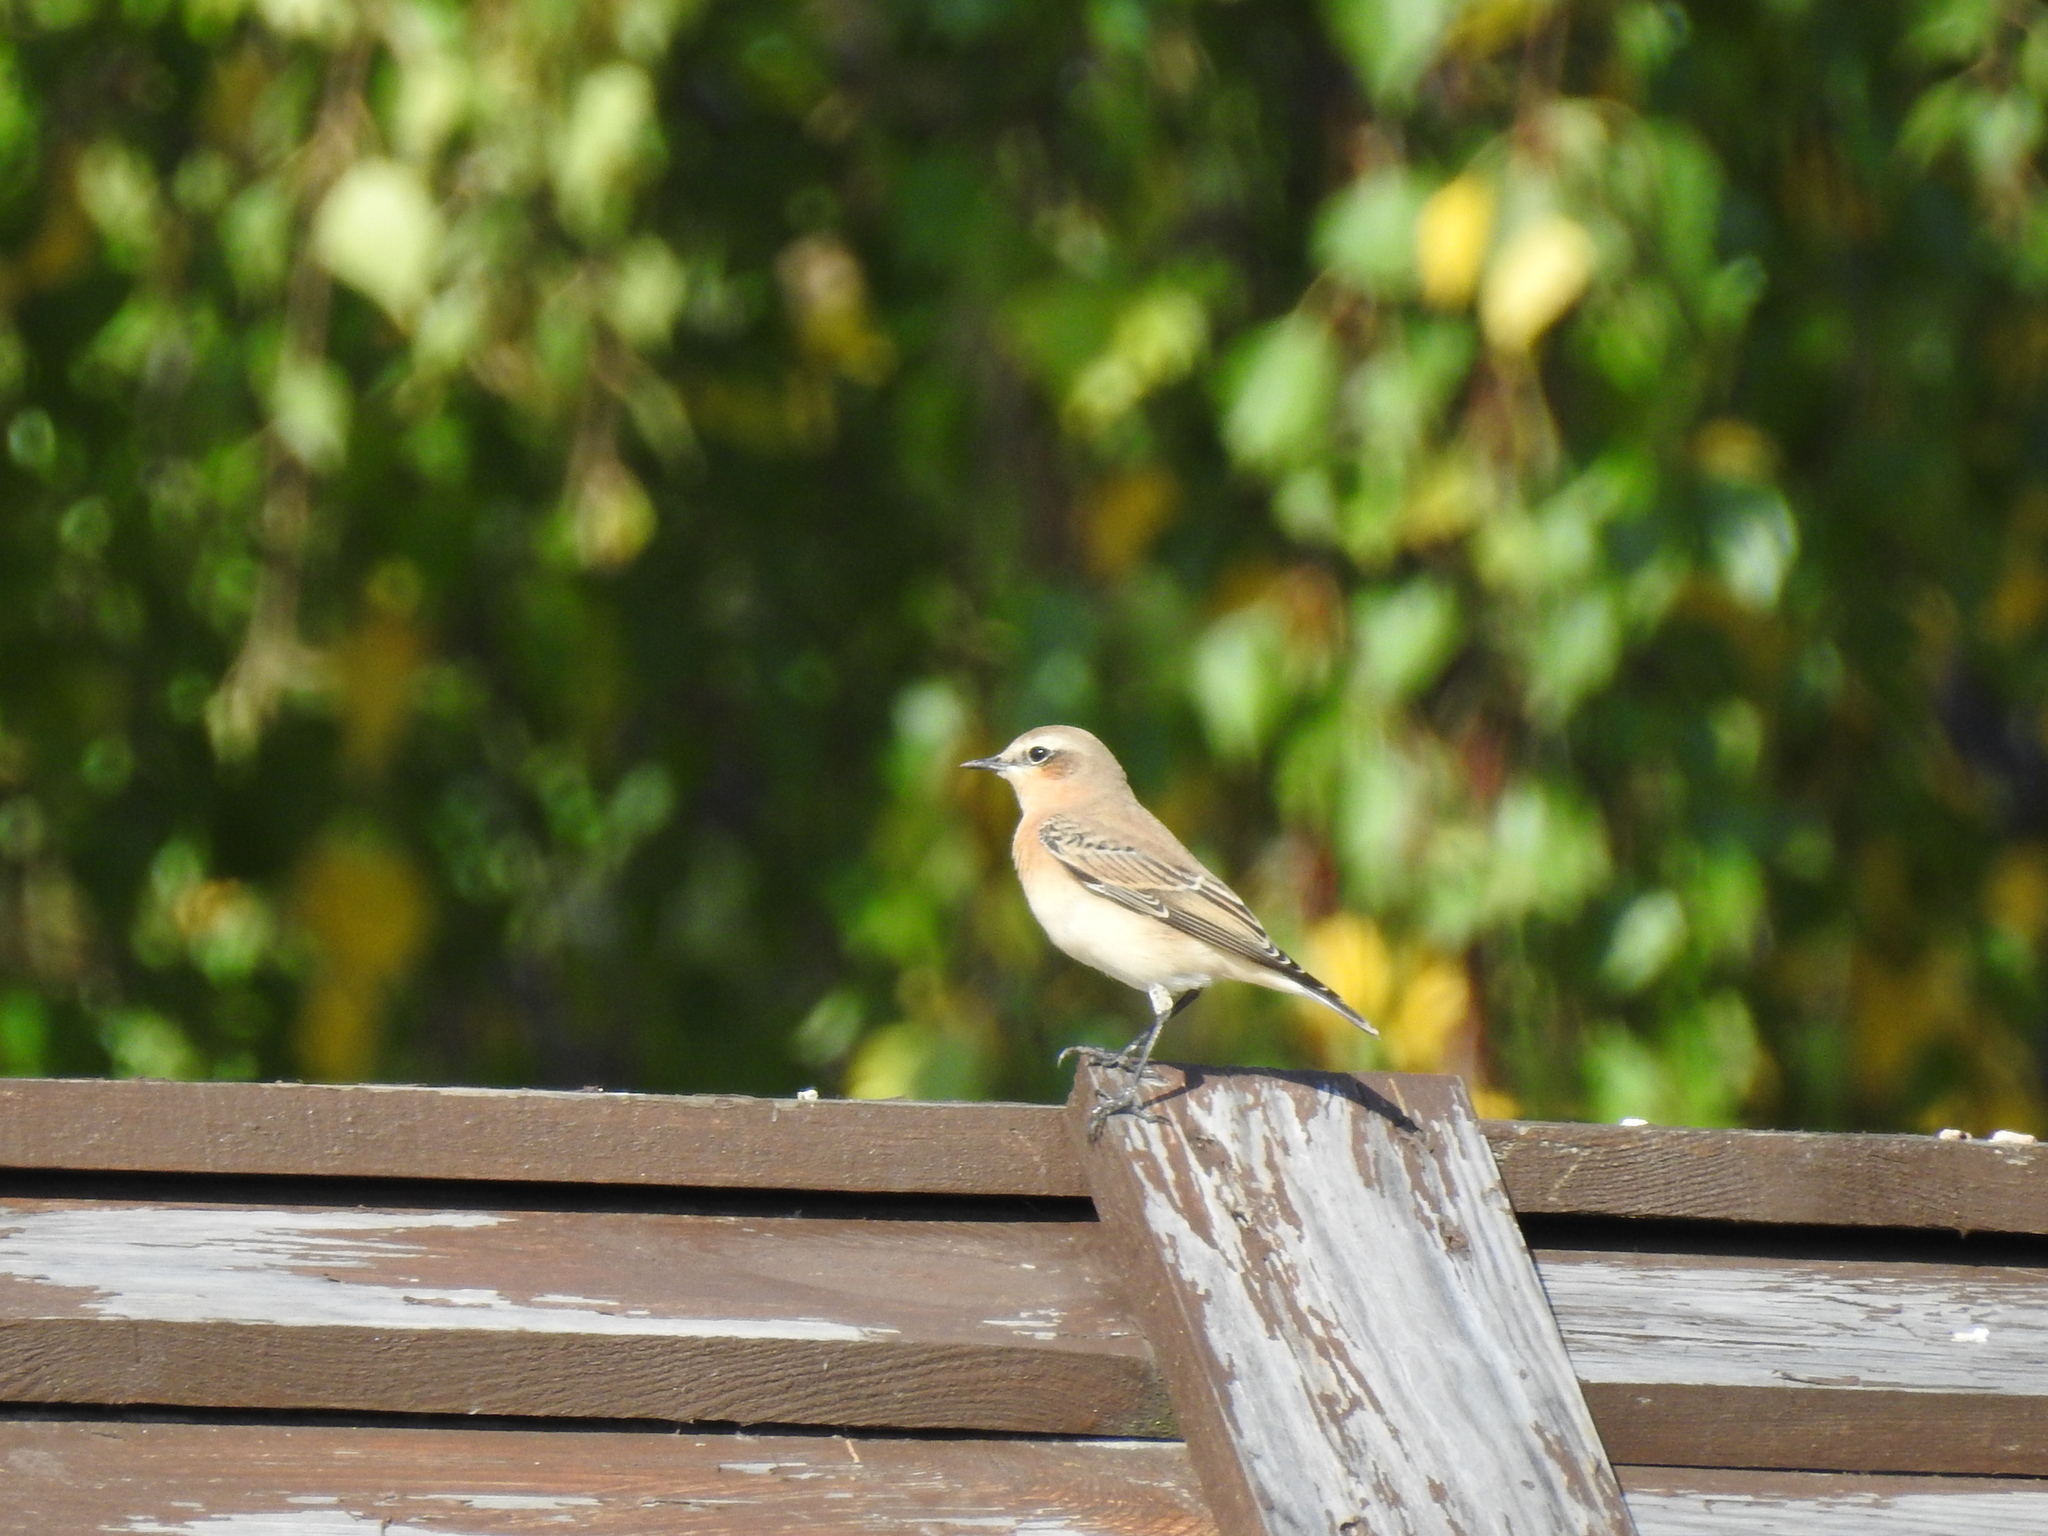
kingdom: Animalia
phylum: Chordata
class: Aves
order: Passeriformes
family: Muscicapidae
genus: Oenanthe
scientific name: Oenanthe oenanthe
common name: Northern wheatear
